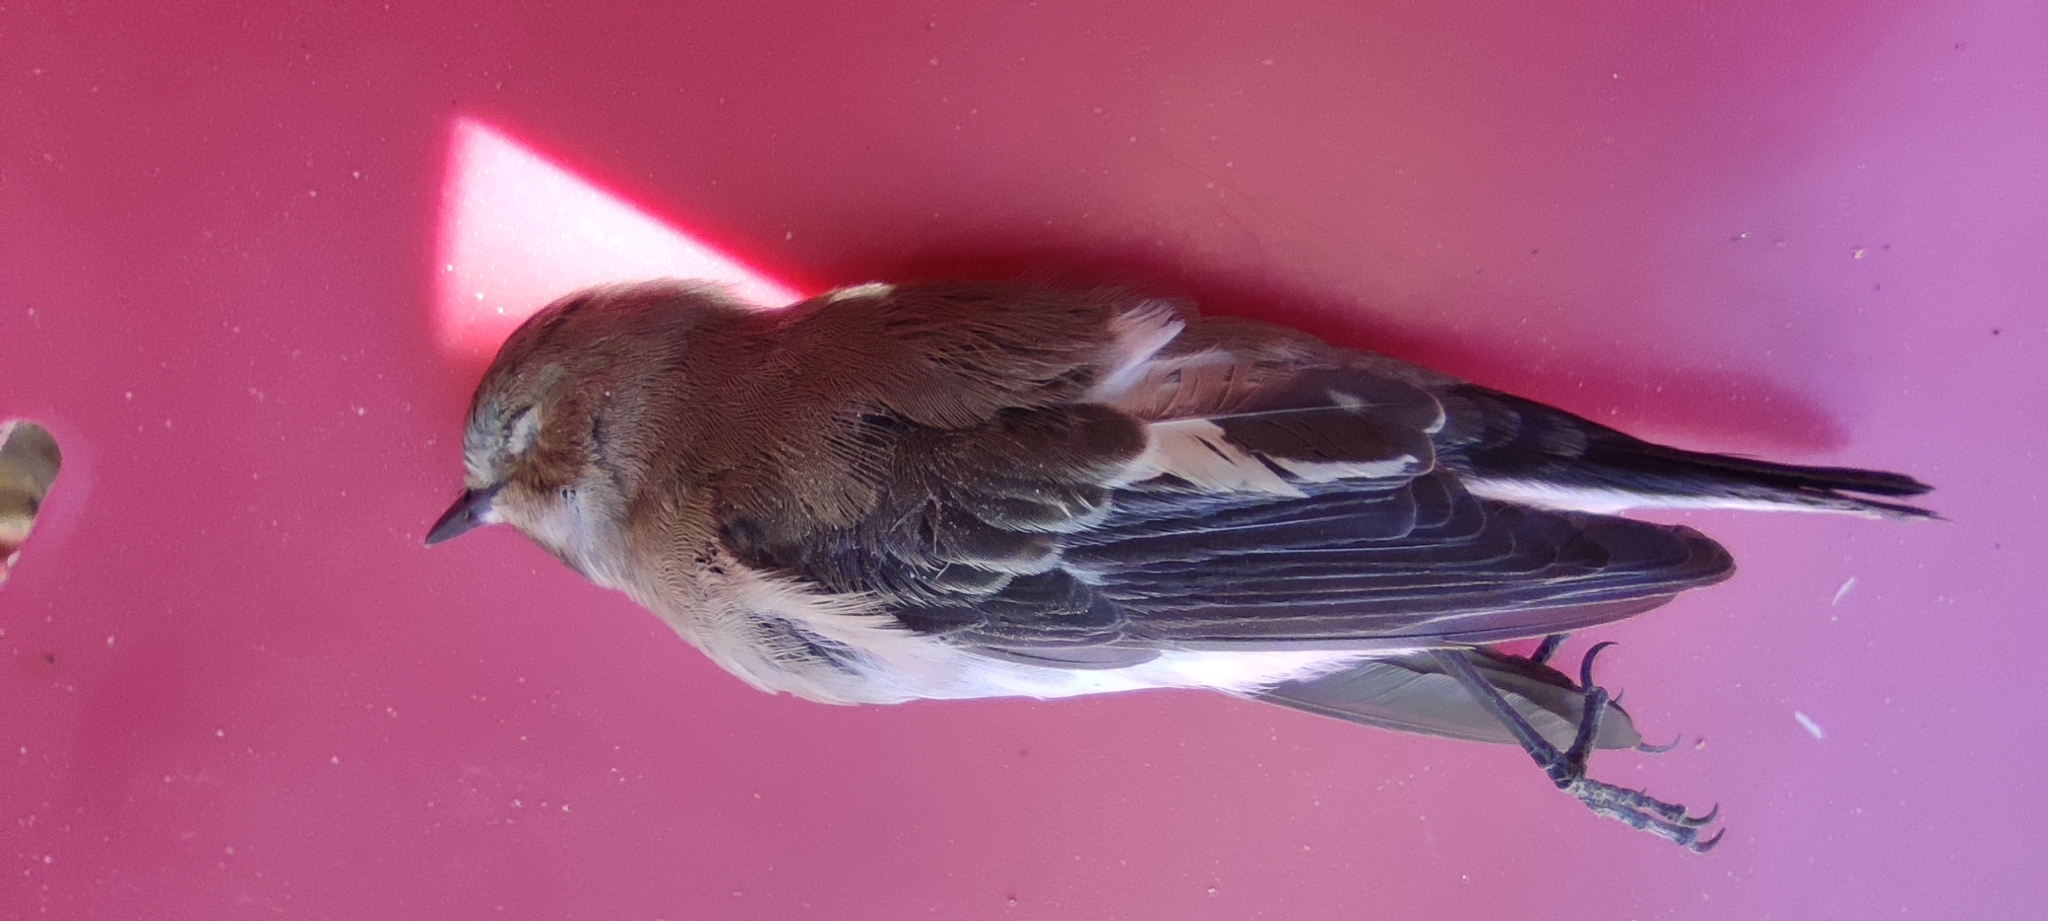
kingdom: Animalia
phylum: Chordata
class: Aves
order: Passeriformes
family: Muscicapidae
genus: Ficedula
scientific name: Ficedula hypoleuca
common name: European pied flycatcher
